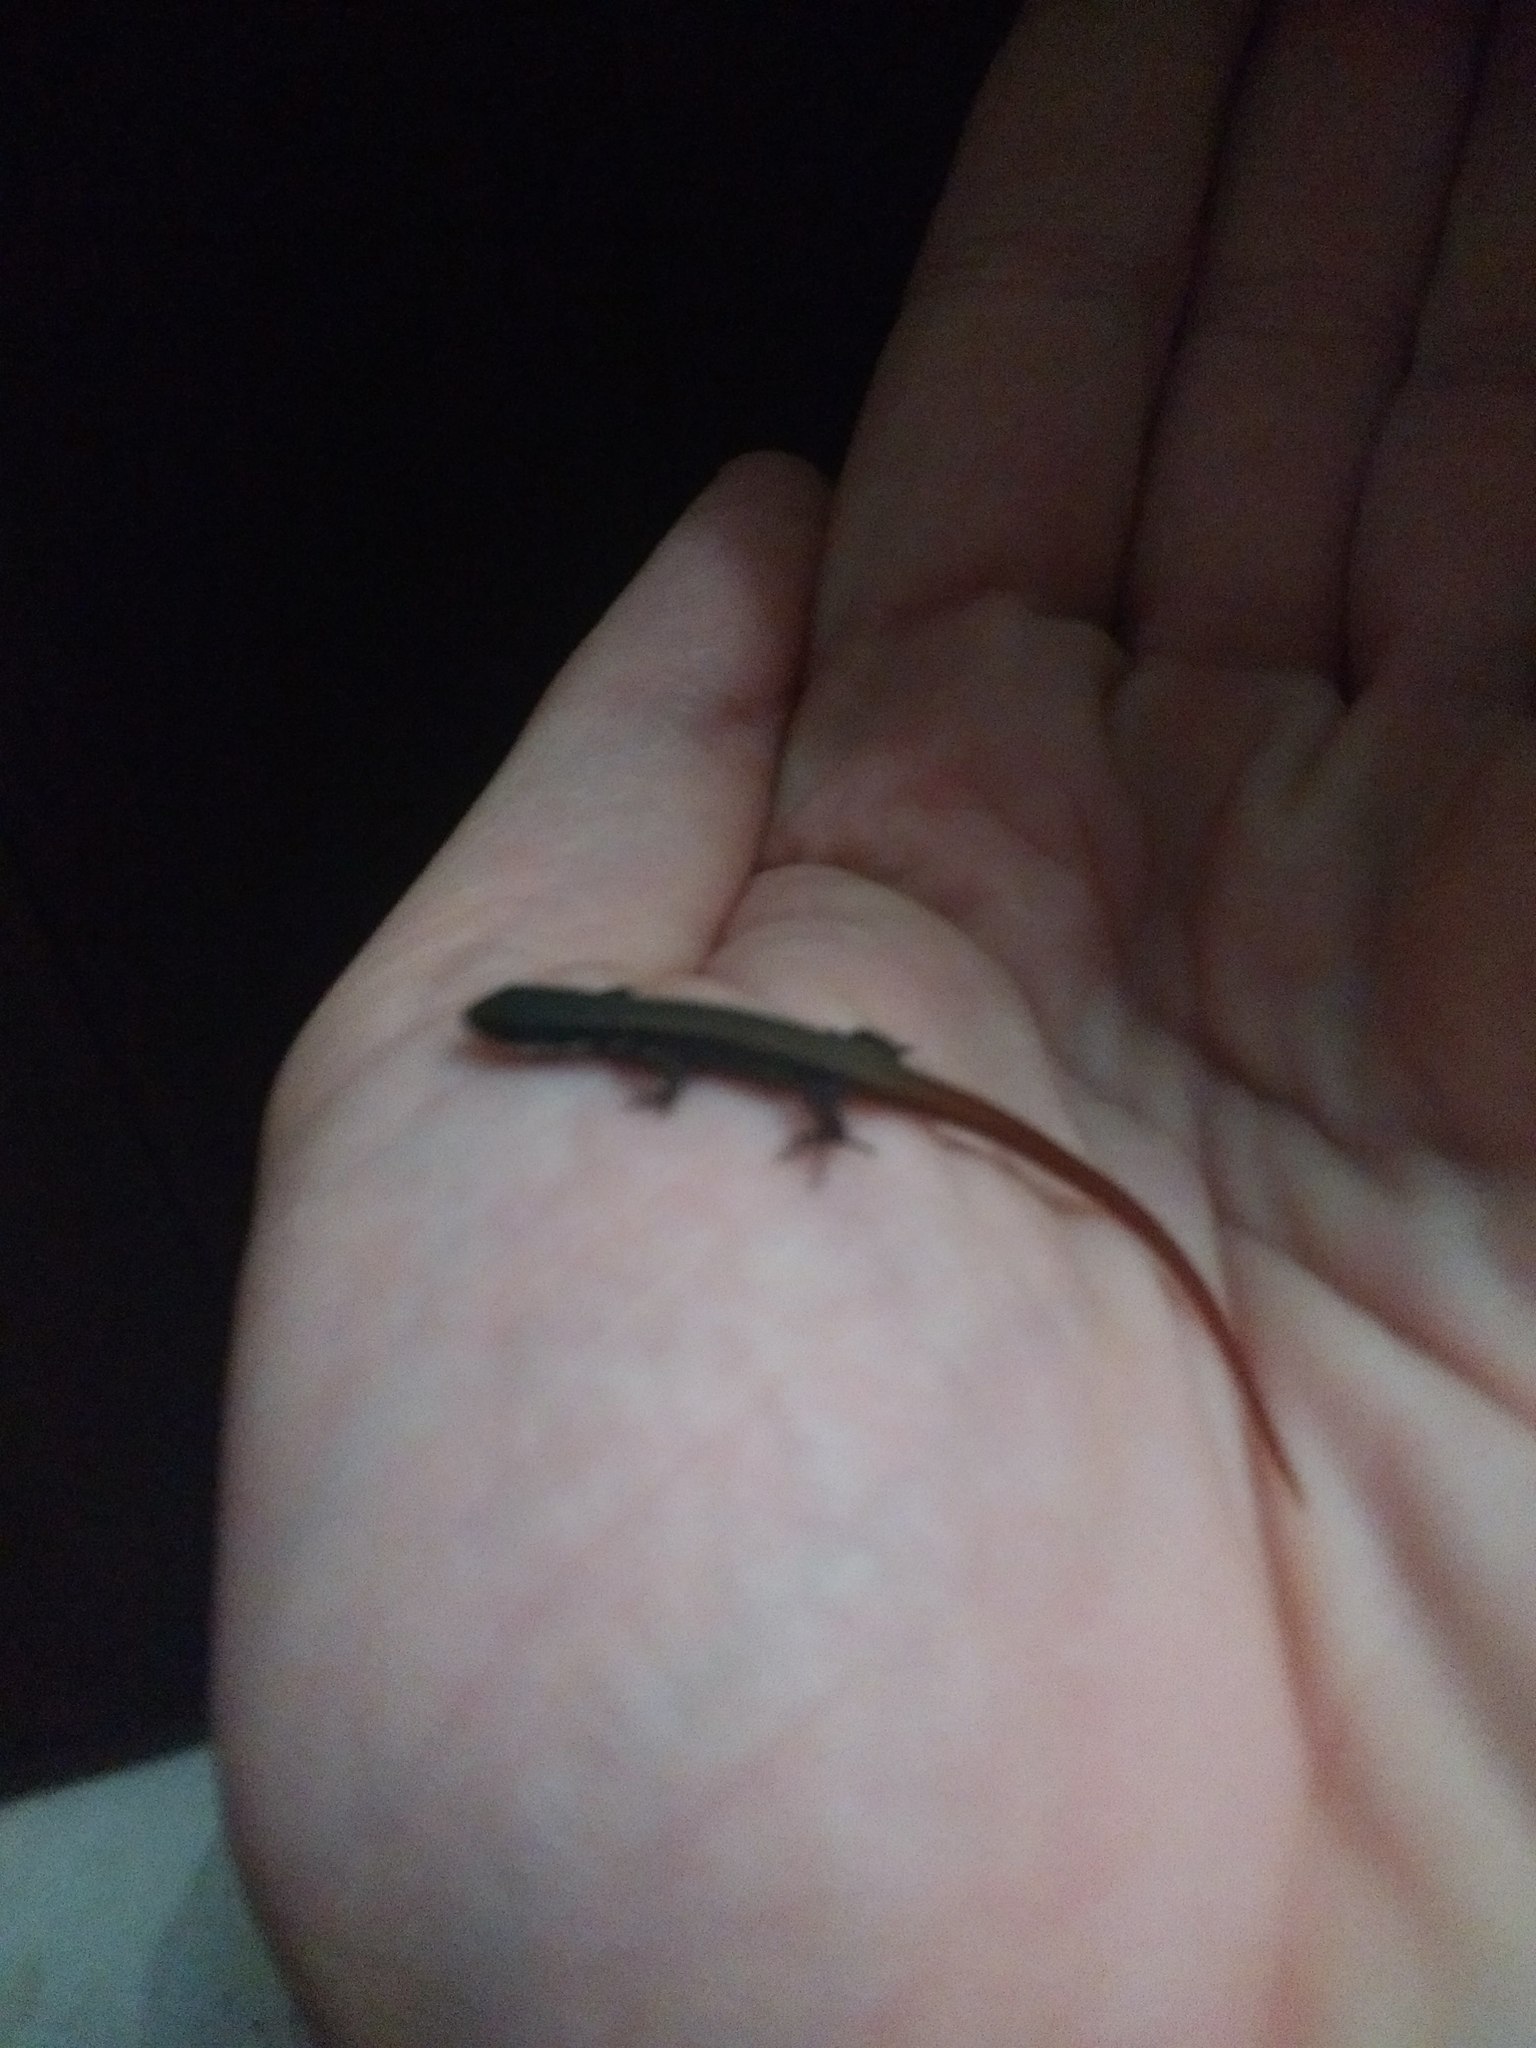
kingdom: Animalia
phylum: Chordata
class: Squamata
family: Gymnophthalmidae
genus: Cercosaura
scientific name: Cercosaura schreibersii
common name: Schreibers' many-fingered teiid
